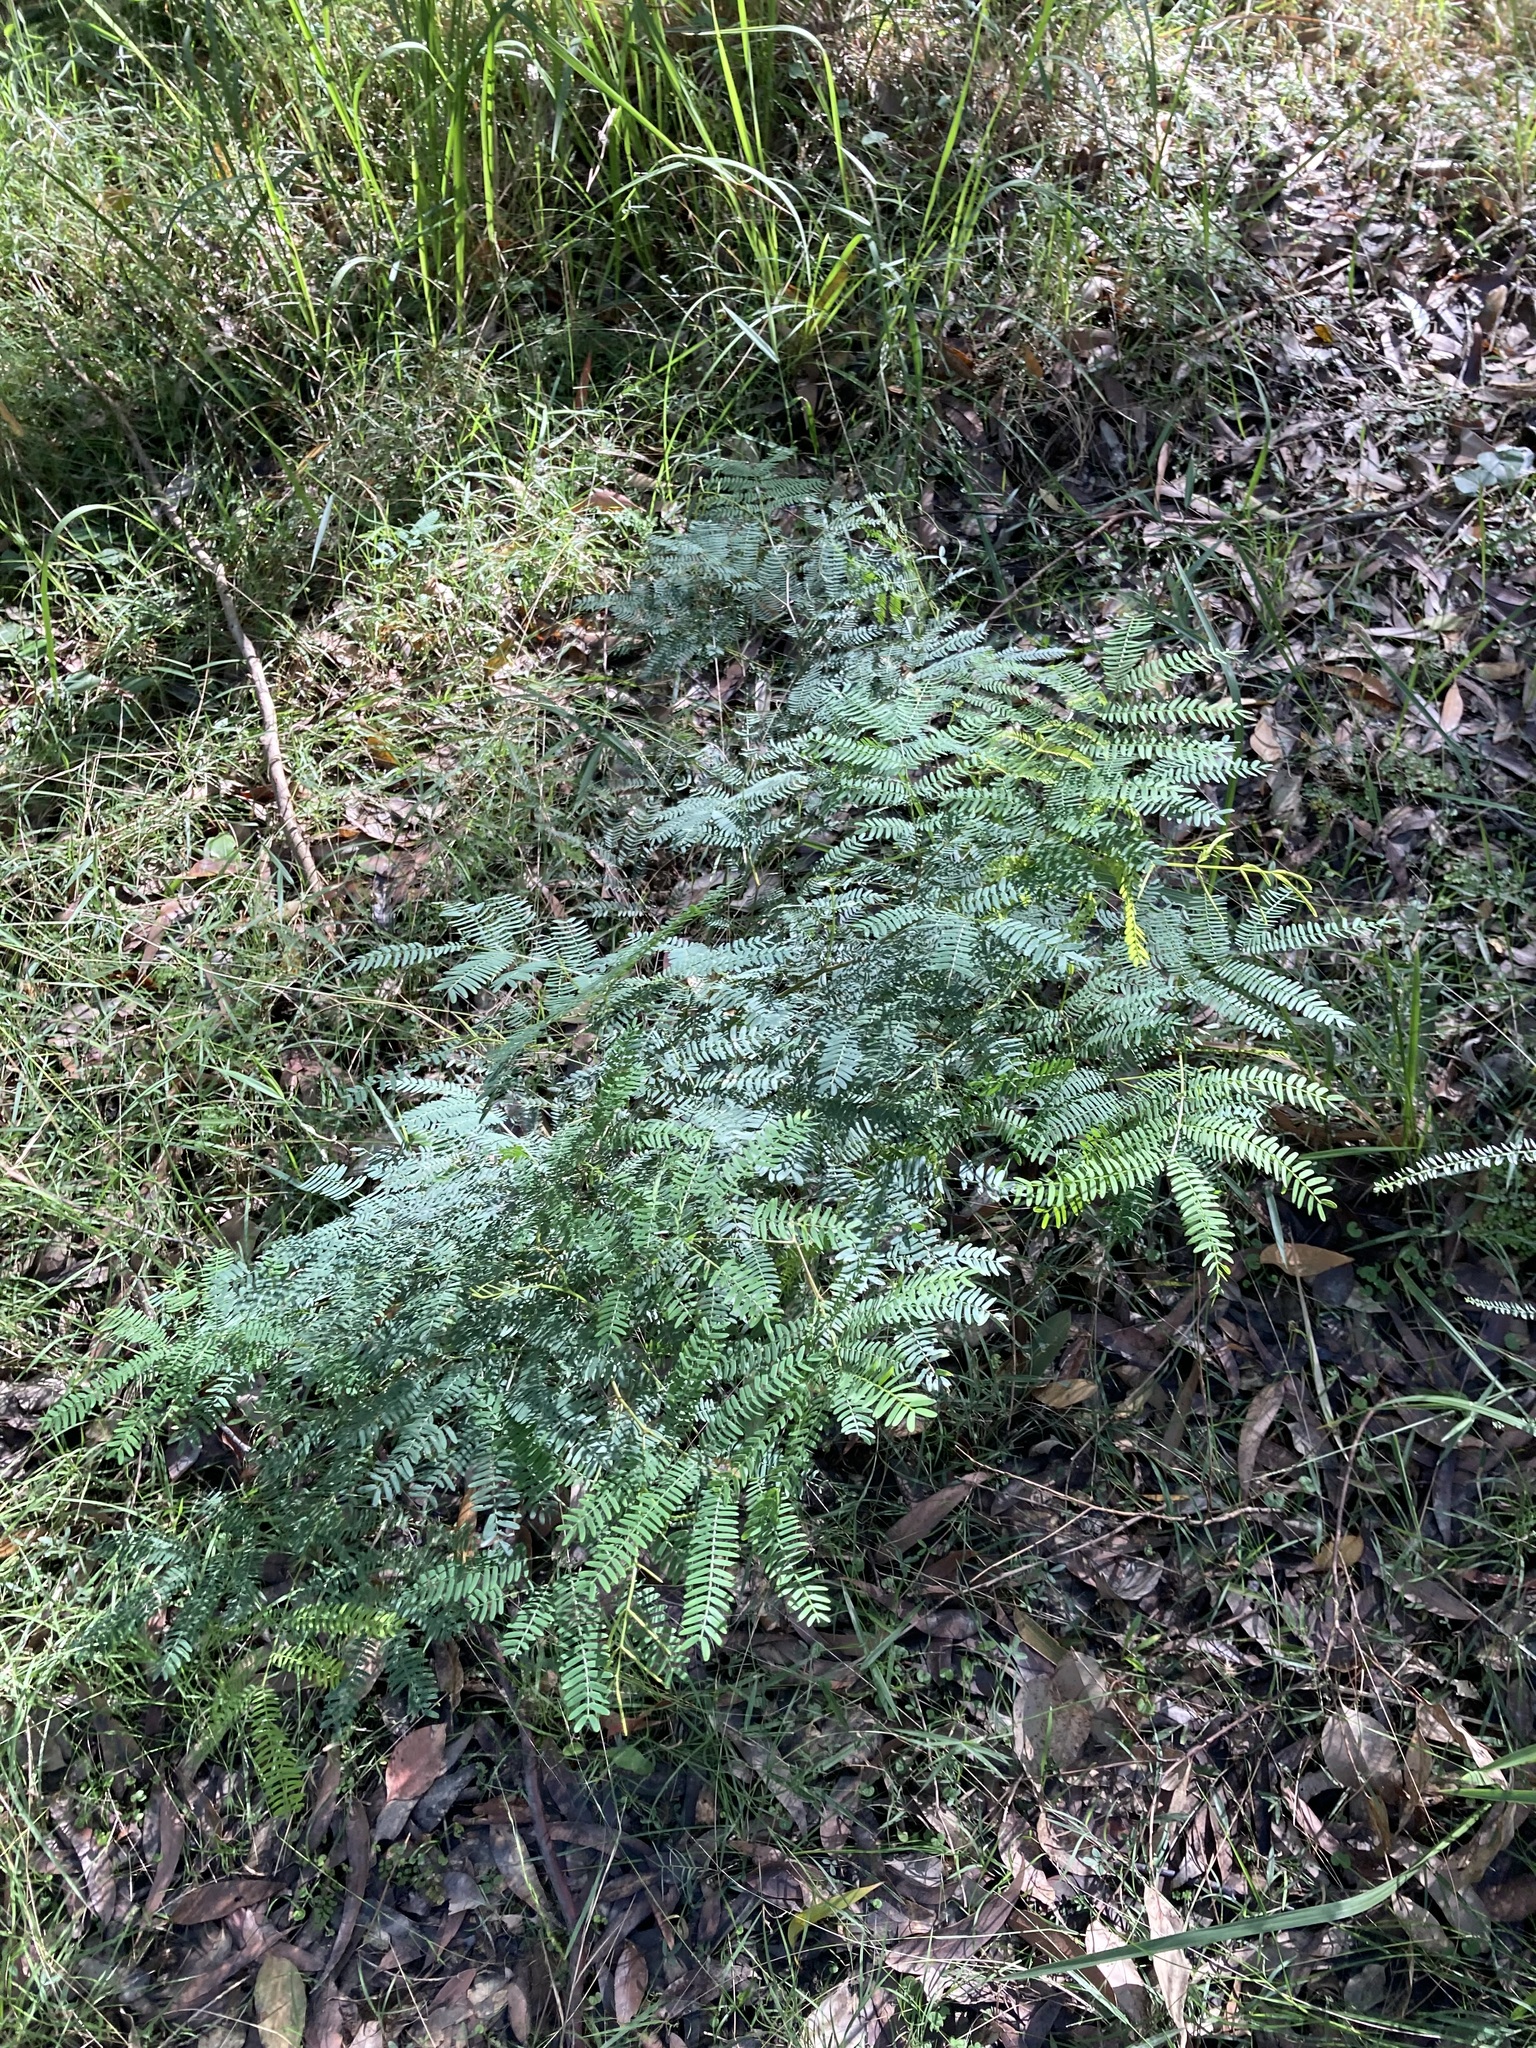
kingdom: Plantae
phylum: Tracheophyta
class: Magnoliopsida
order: Fabales
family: Fabaceae
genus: Acacia
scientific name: Acacia schinoides
